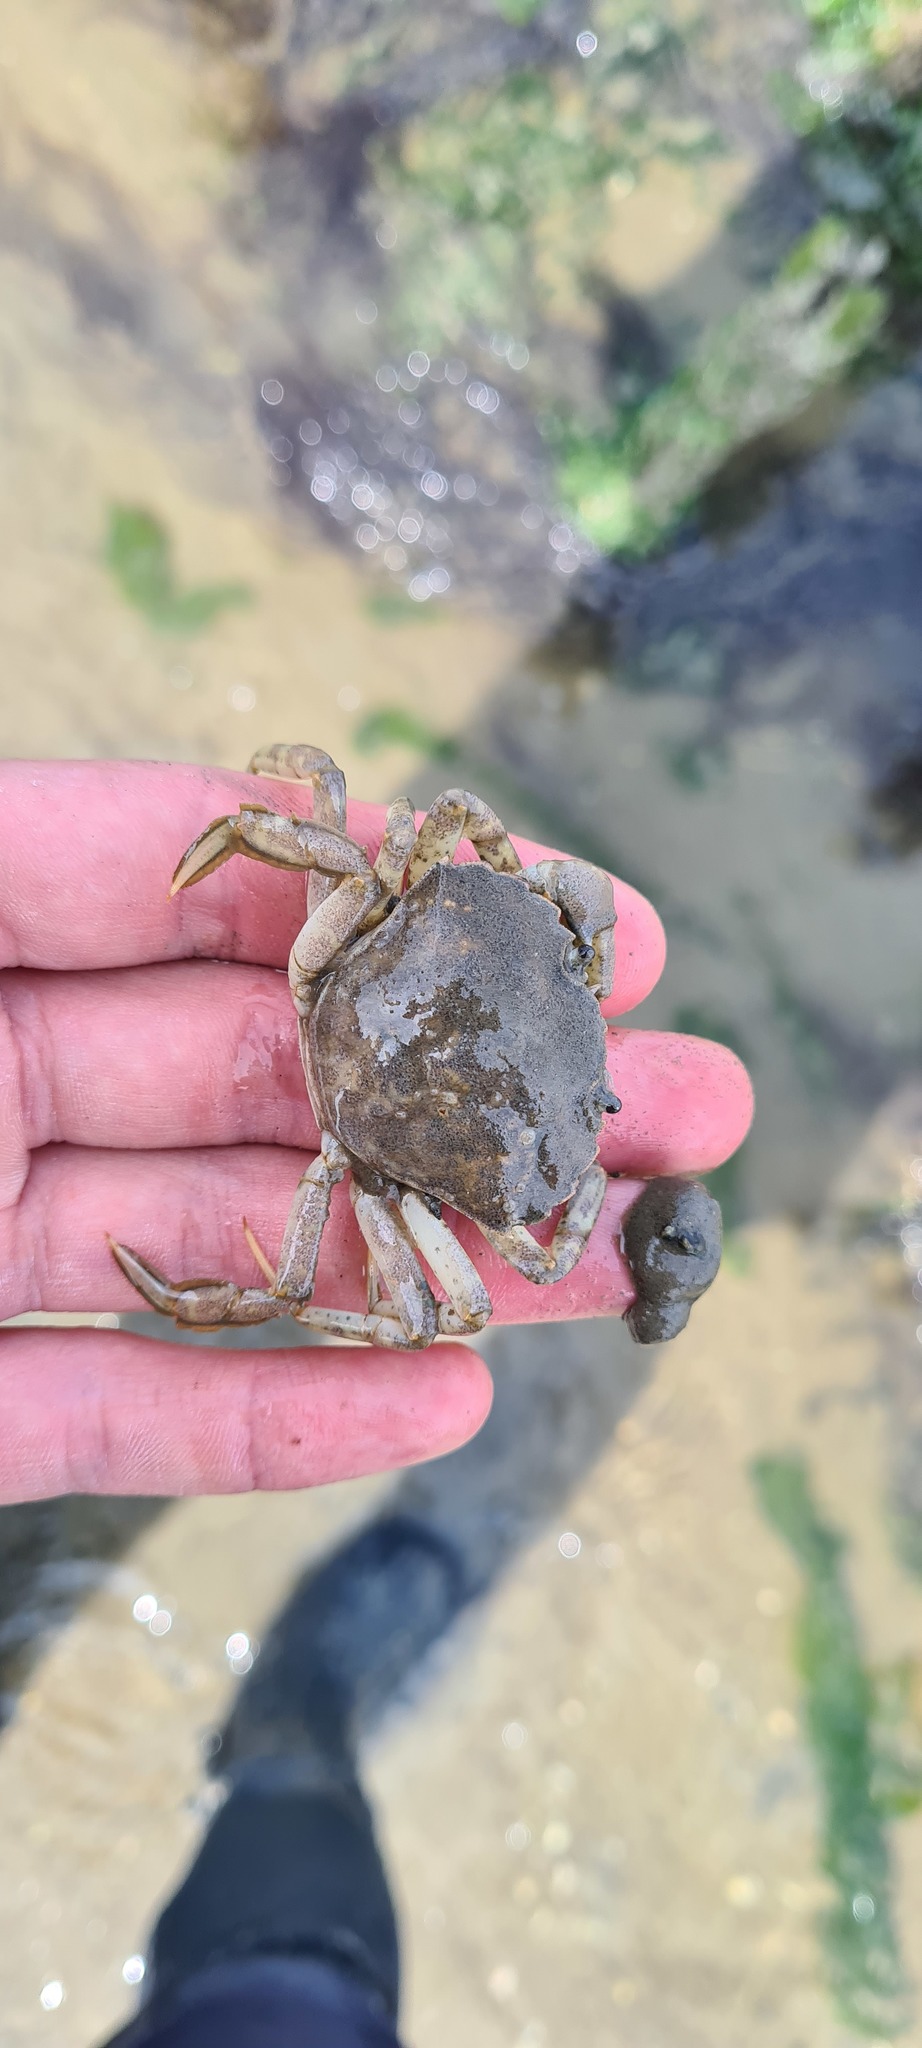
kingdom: Animalia
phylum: Arthropoda
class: Malacostraca
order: Decapoda
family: Carcinidae
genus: Carcinus
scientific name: Carcinus maenas
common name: European green crab
